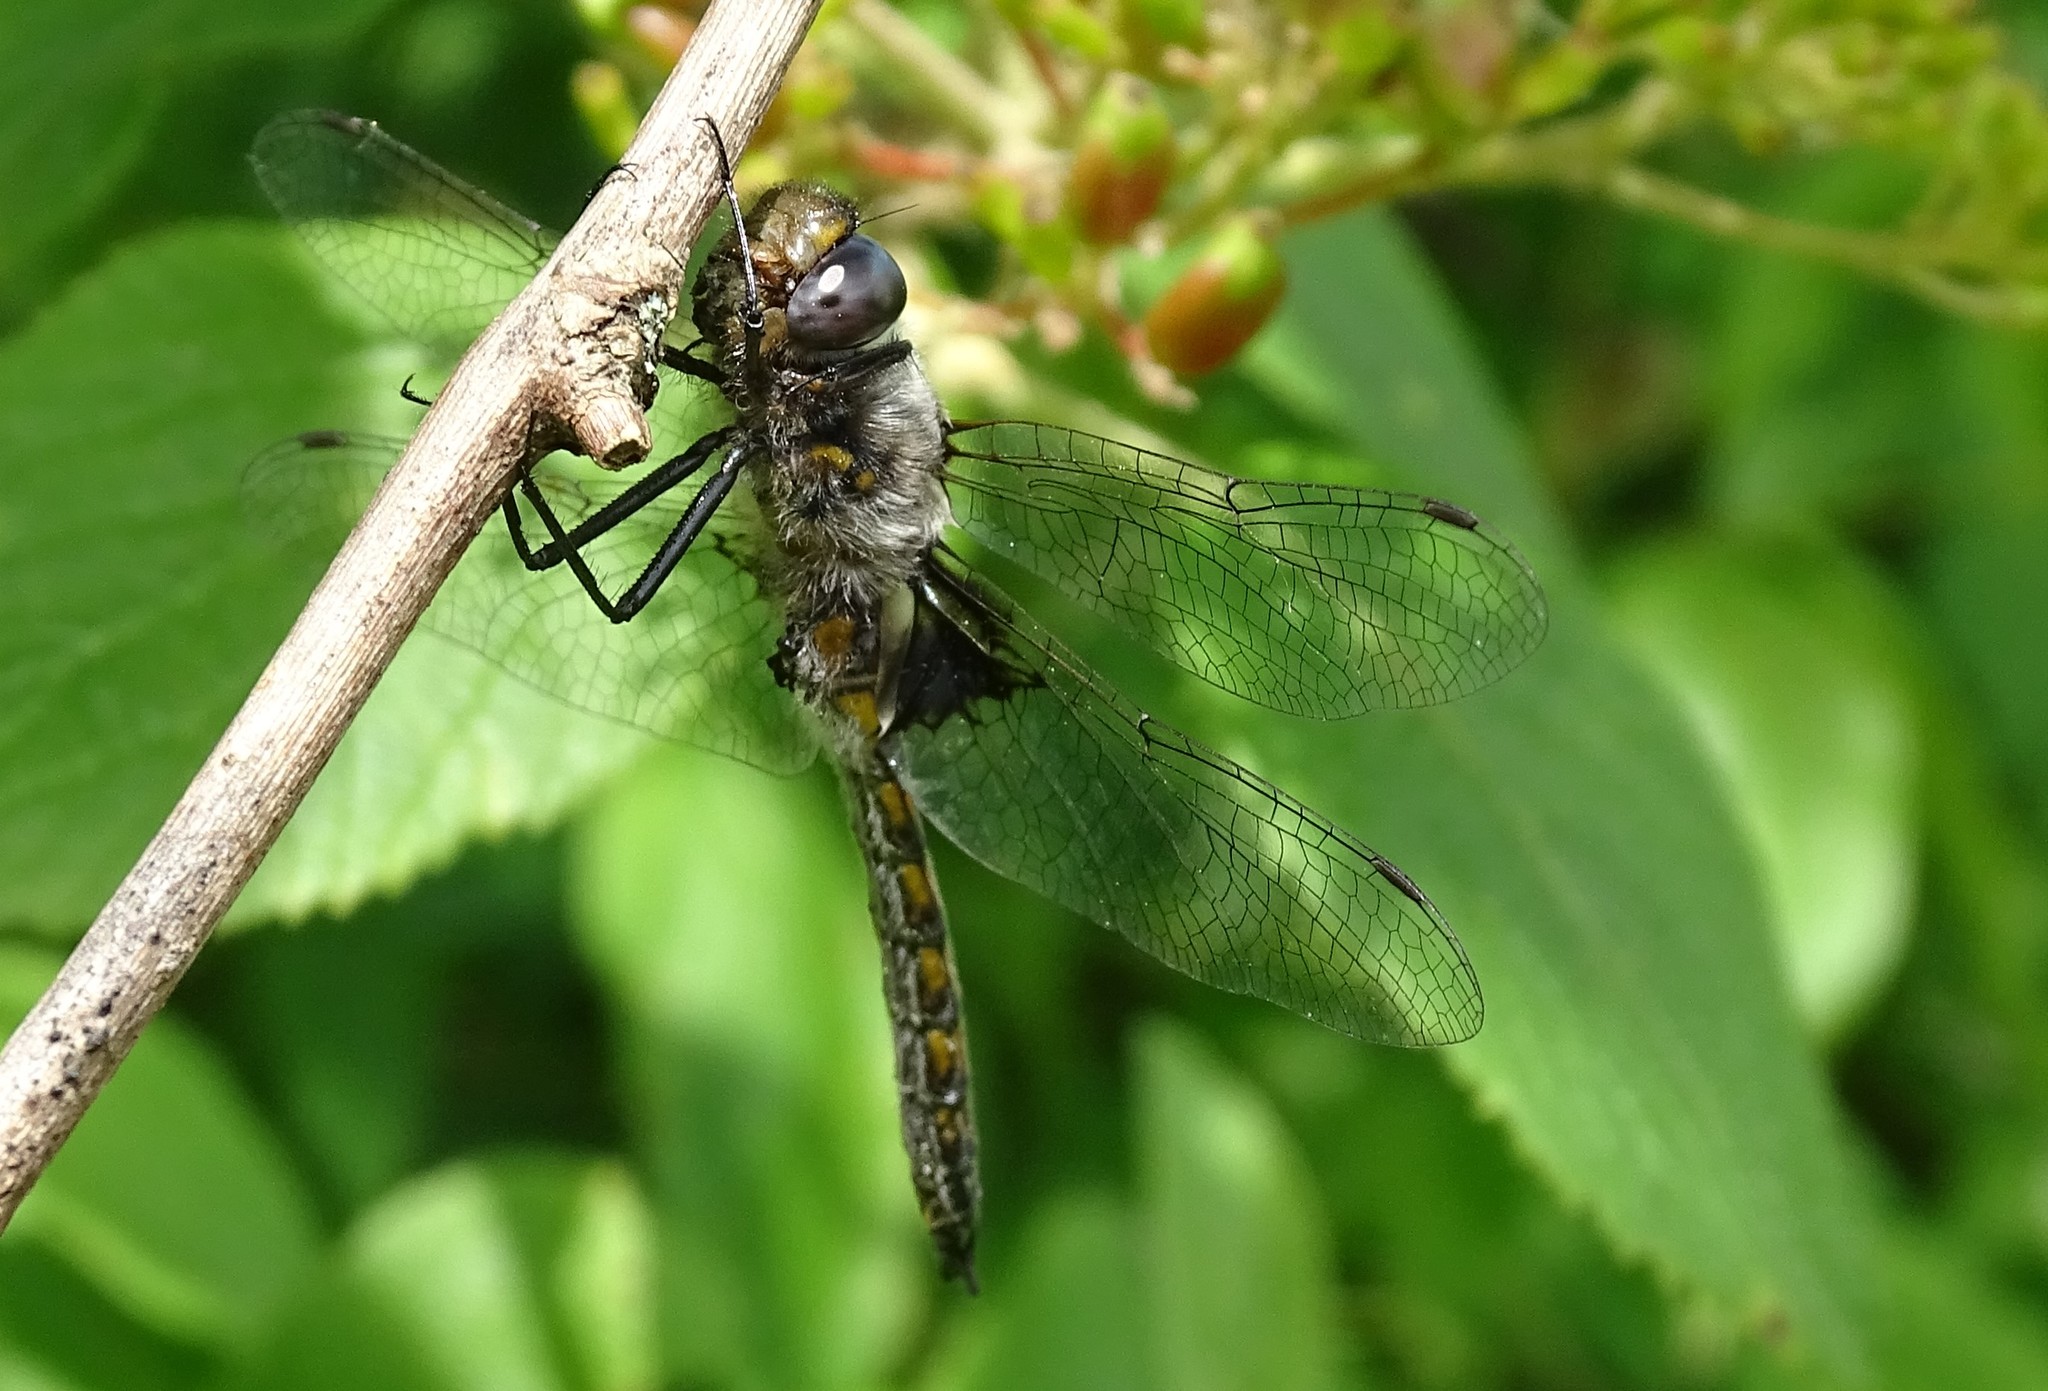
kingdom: Animalia
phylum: Arthropoda
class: Insecta
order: Odonata
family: Corduliidae
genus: Epitheca
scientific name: Epitheca cynosura
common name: Common baskettail
